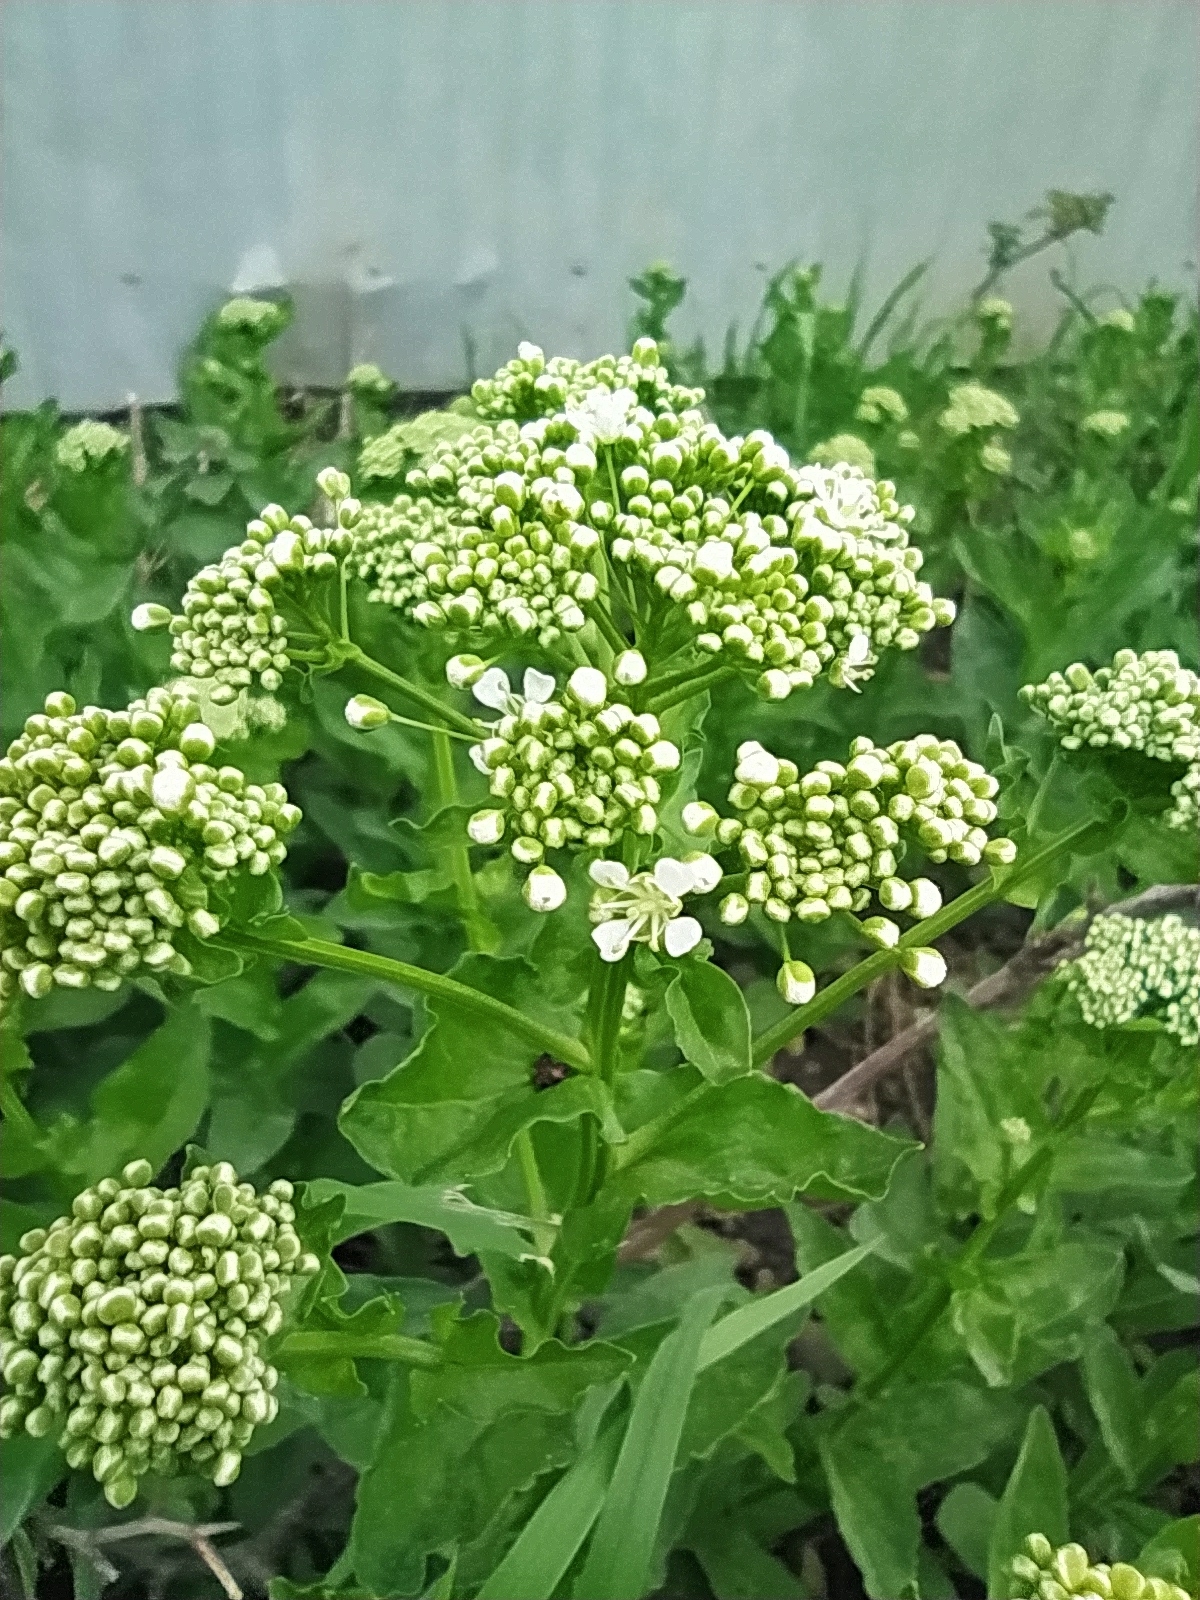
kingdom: Plantae
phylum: Tracheophyta
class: Magnoliopsida
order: Brassicales
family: Brassicaceae
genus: Lepidium
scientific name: Lepidium draba
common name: Hoary cress
